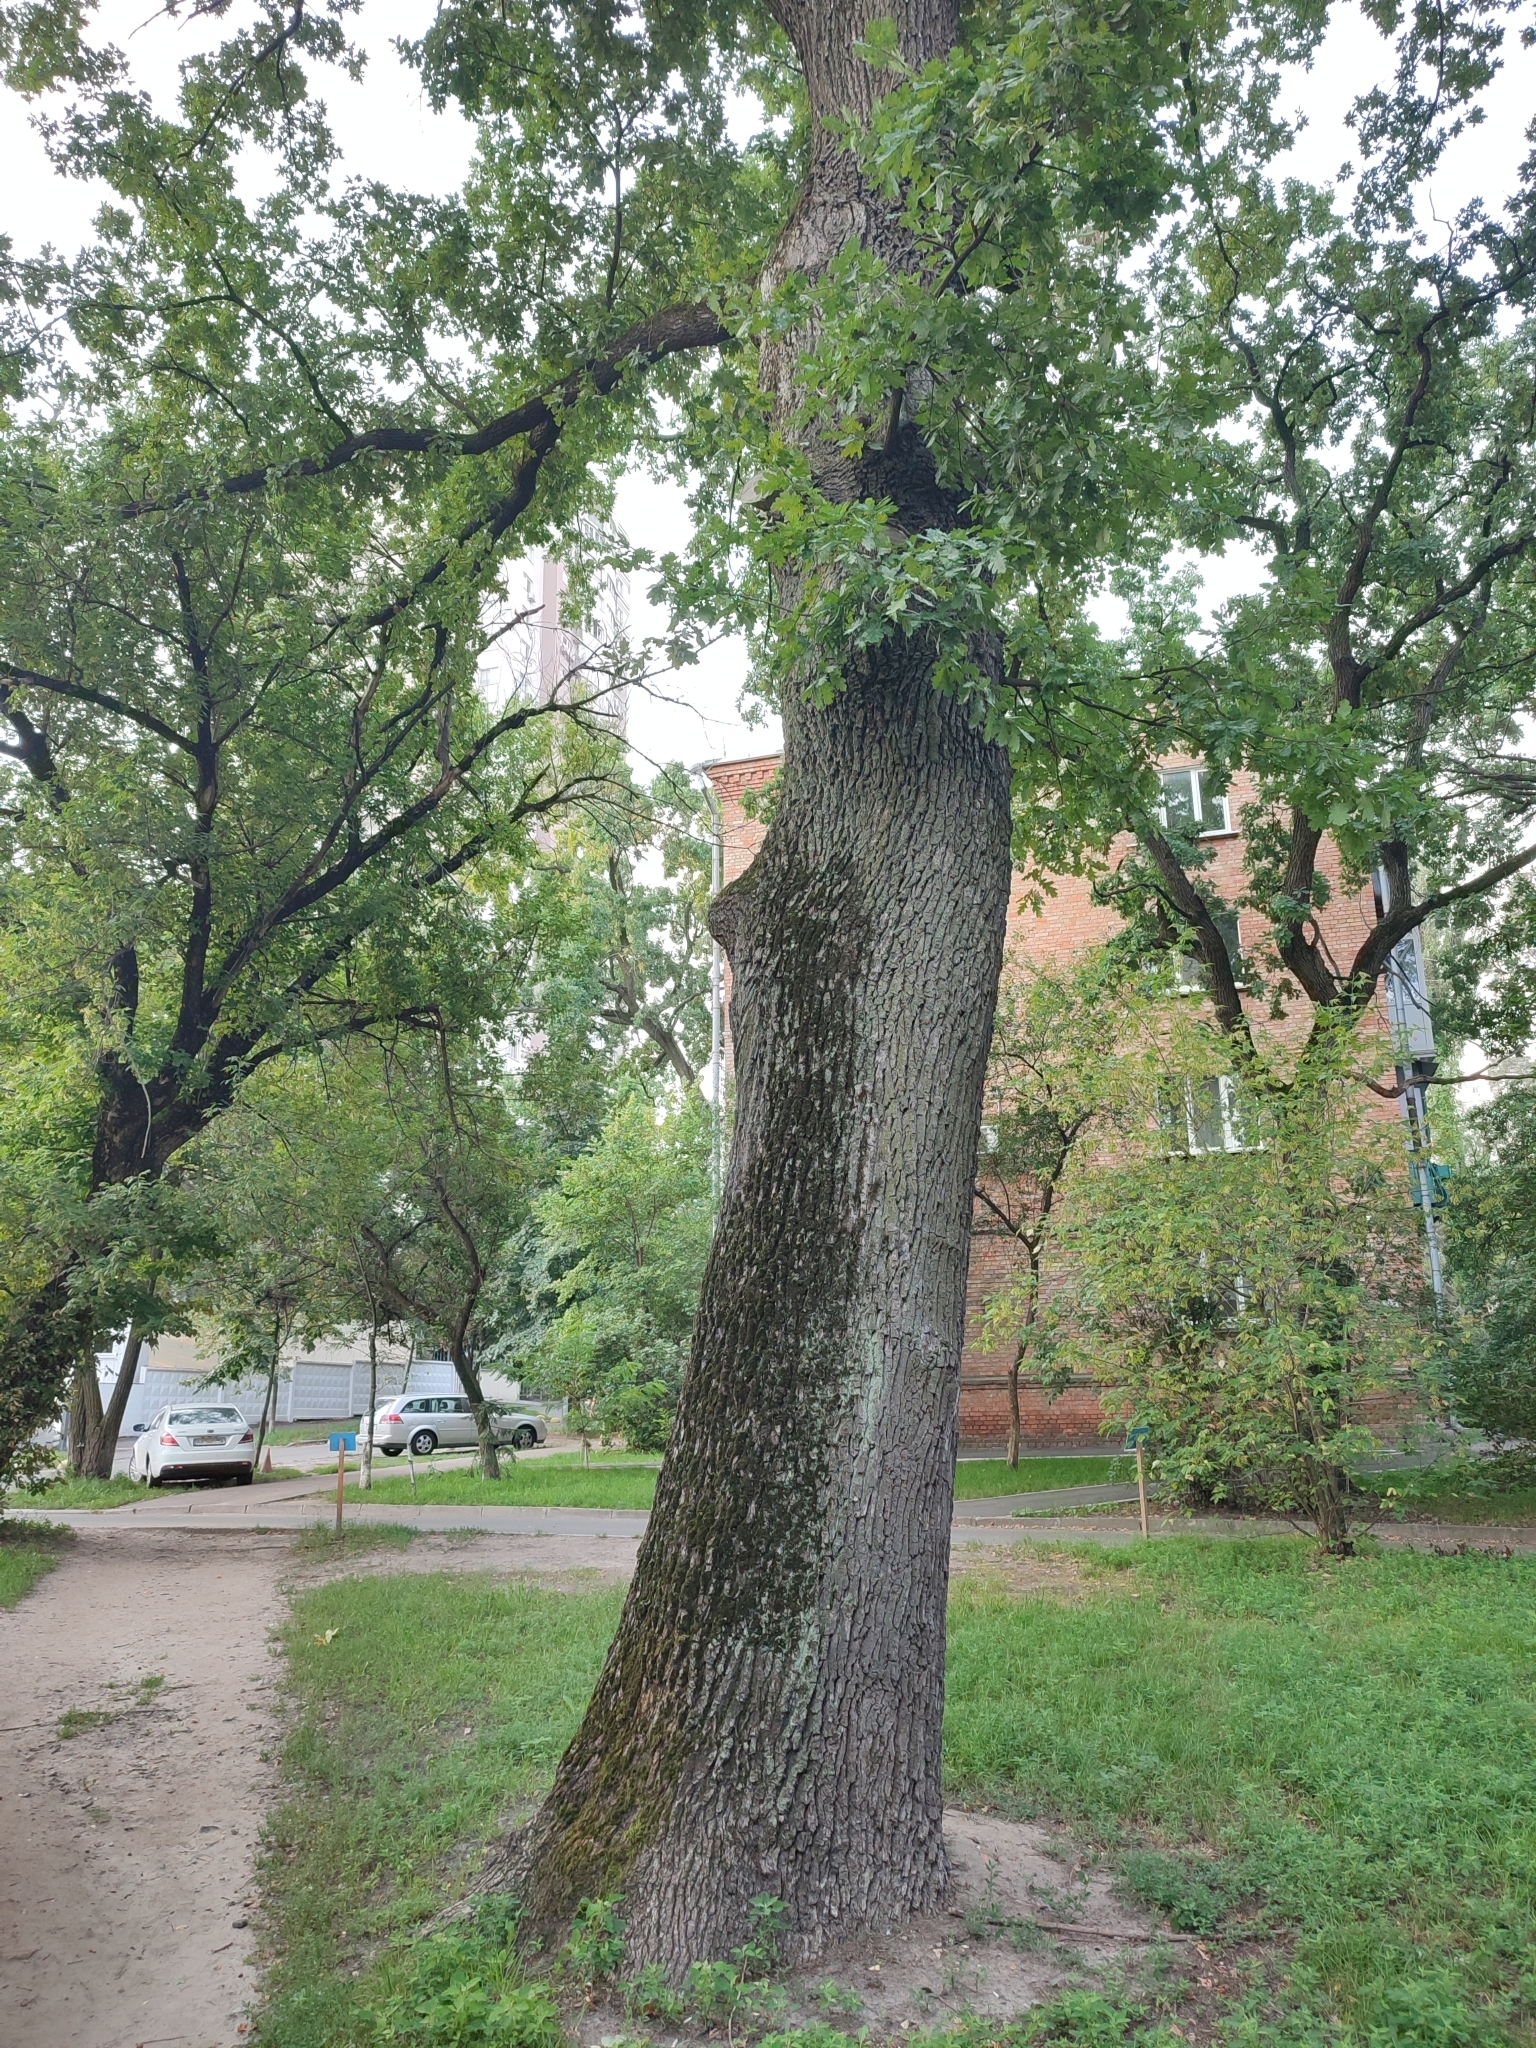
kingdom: Plantae
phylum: Tracheophyta
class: Magnoliopsida
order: Fagales
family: Fagaceae
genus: Quercus
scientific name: Quercus robur
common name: Pedunculate oak
